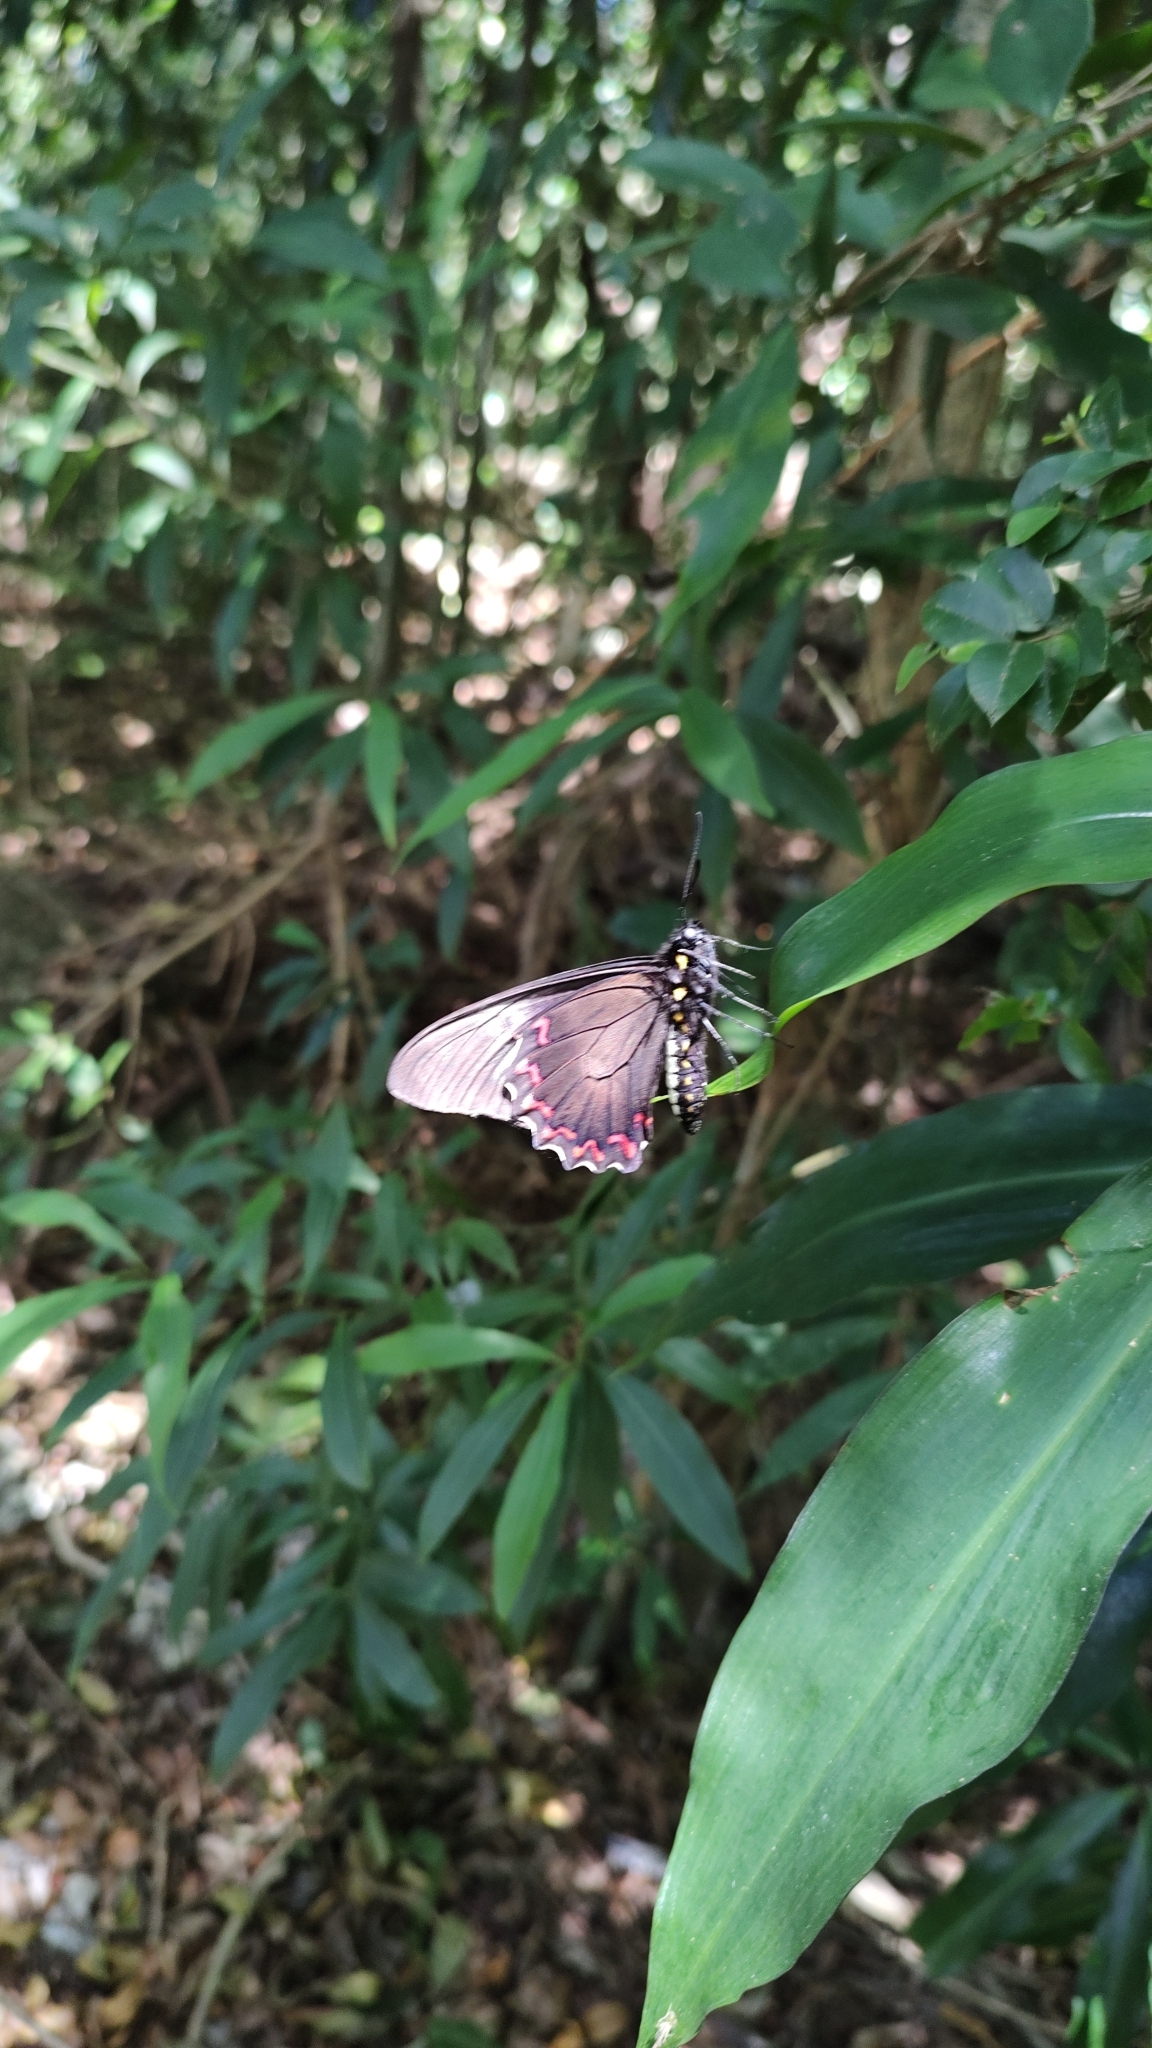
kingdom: Animalia
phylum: Arthropoda
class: Insecta
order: Lepidoptera
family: Papilionidae
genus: Battus
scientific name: Battus polystictus
